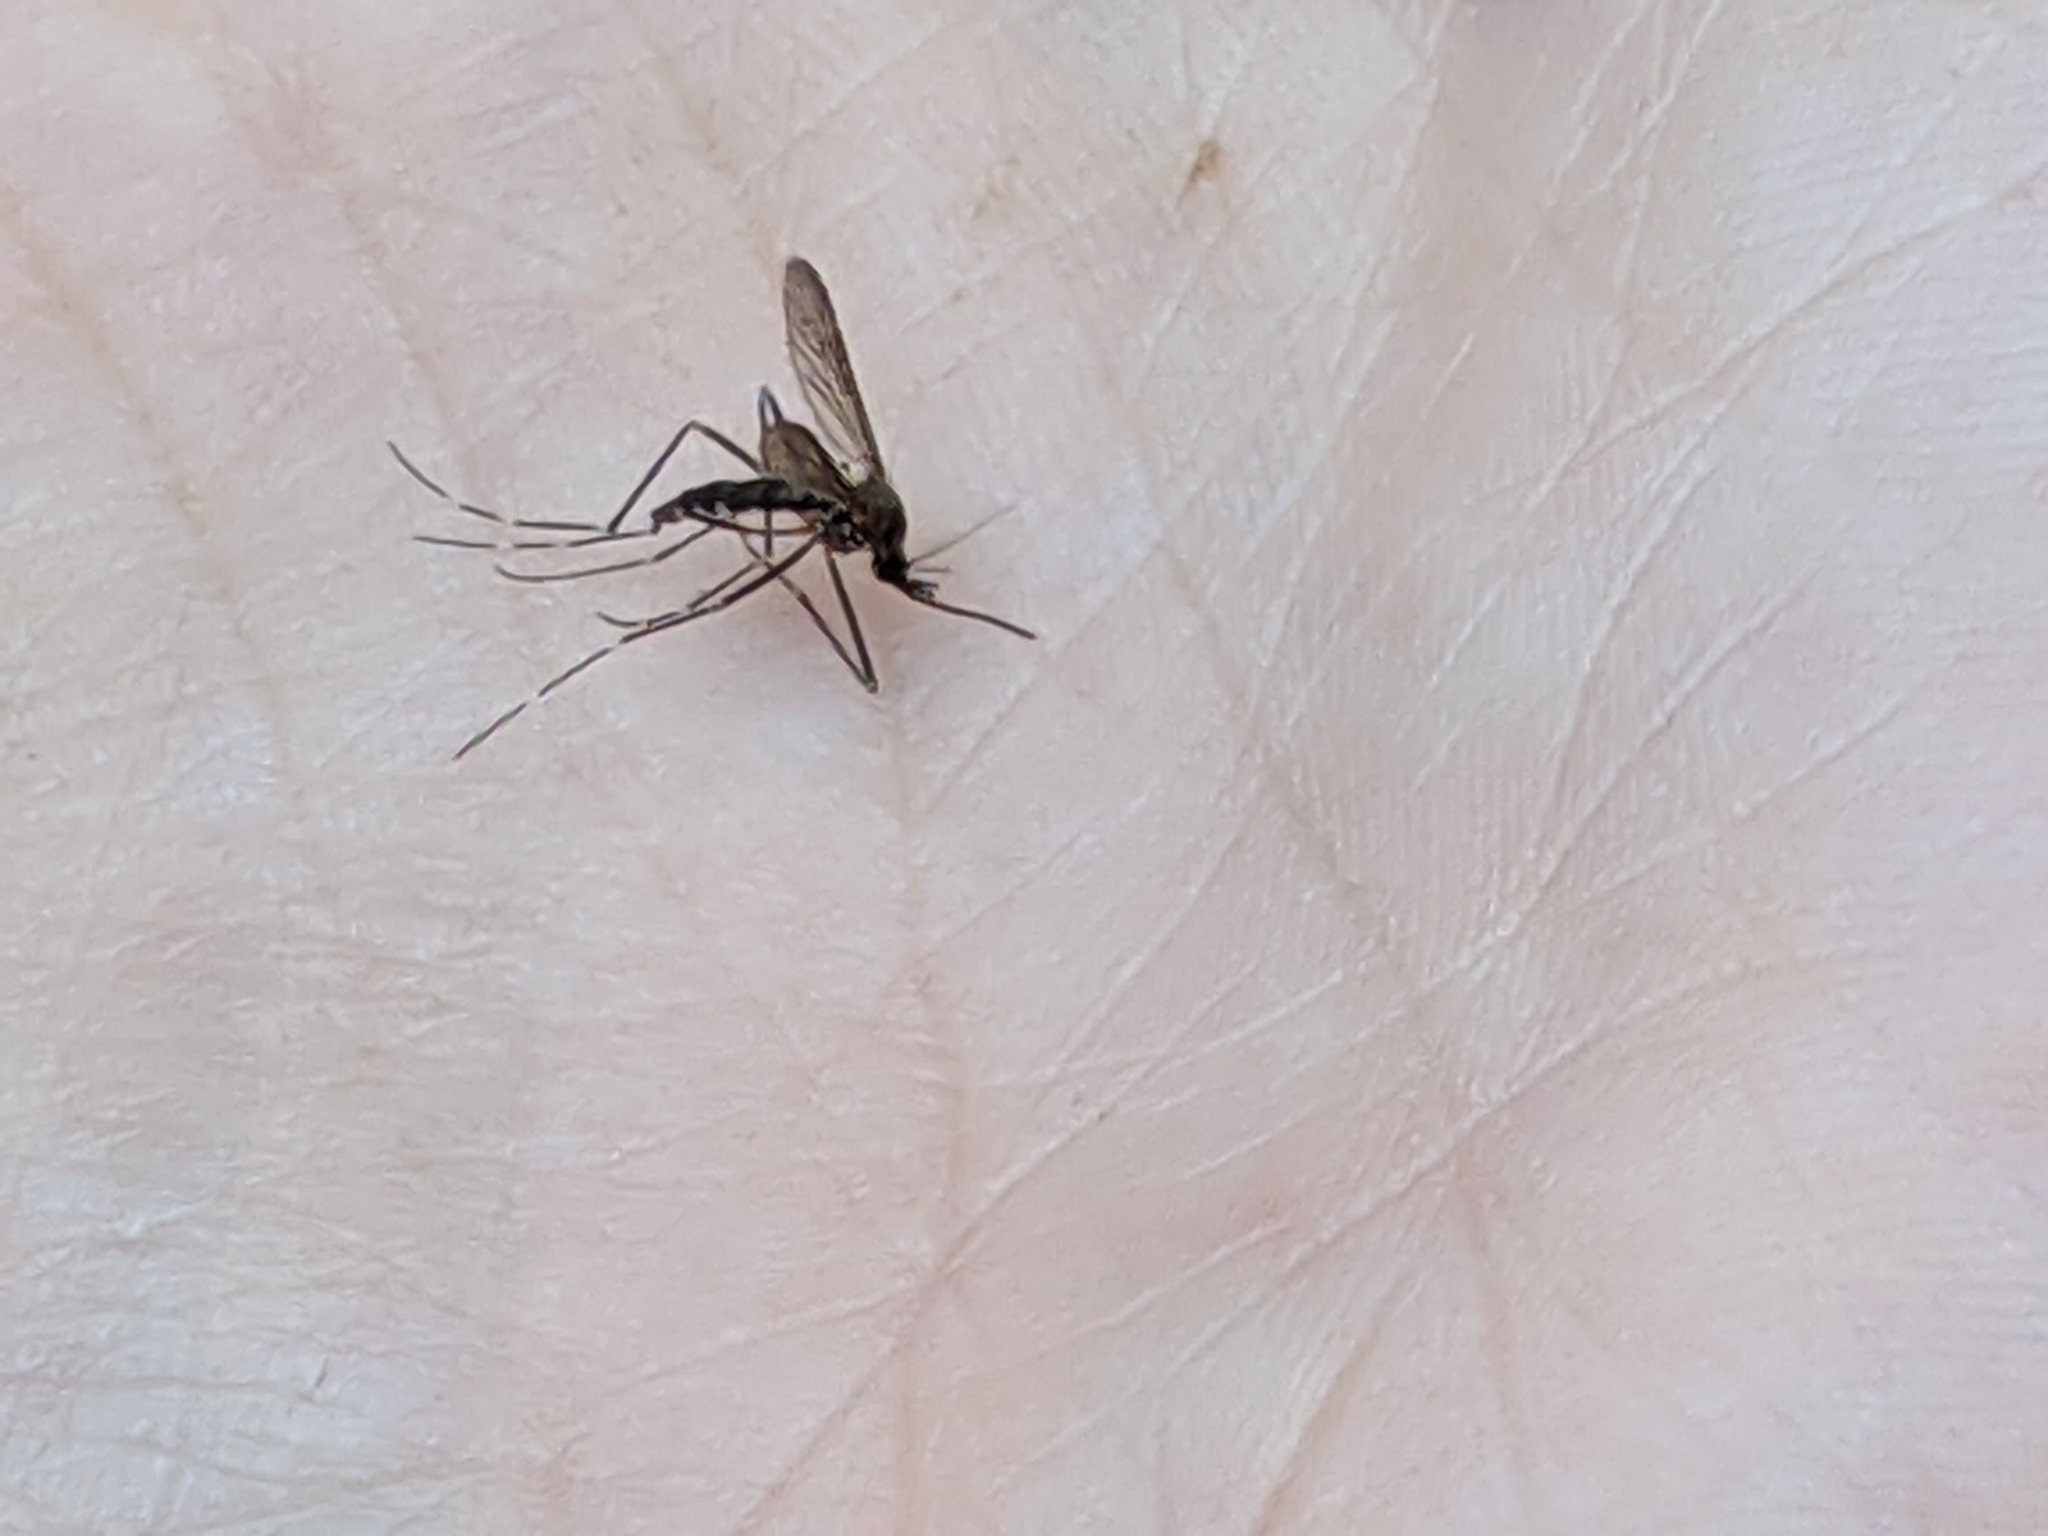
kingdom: Animalia
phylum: Arthropoda
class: Insecta
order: Diptera
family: Culicidae
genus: Aedes
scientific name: Aedes japonicus
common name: Asian bush mosquito
